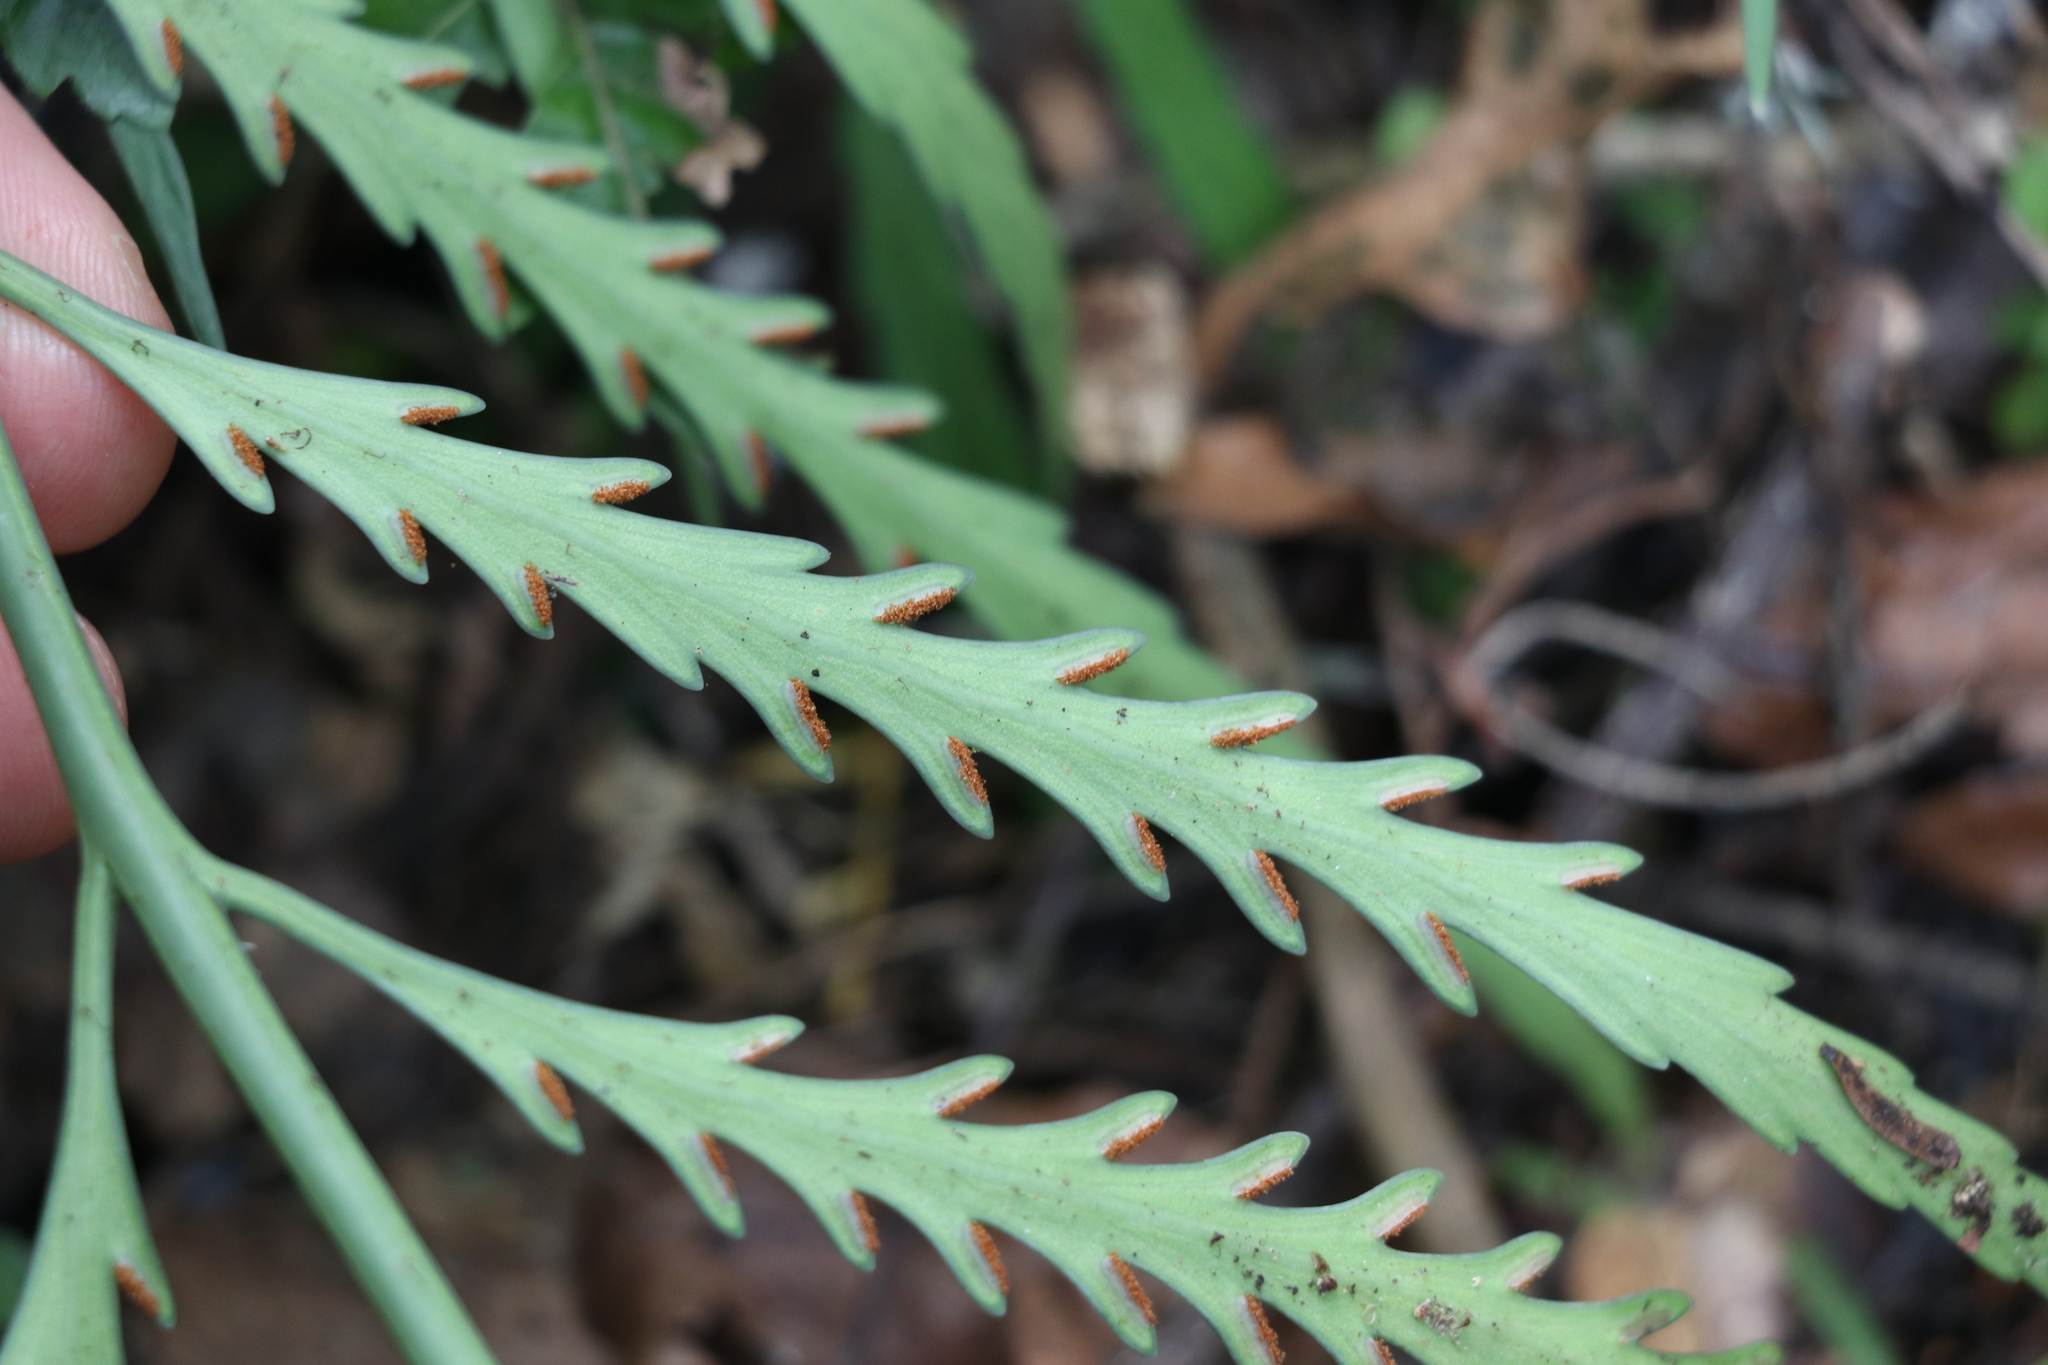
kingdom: Plantae
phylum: Tracheophyta
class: Polypodiopsida
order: Polypodiales
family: Aspleniaceae
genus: Asplenium
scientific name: Asplenium flaccidum
